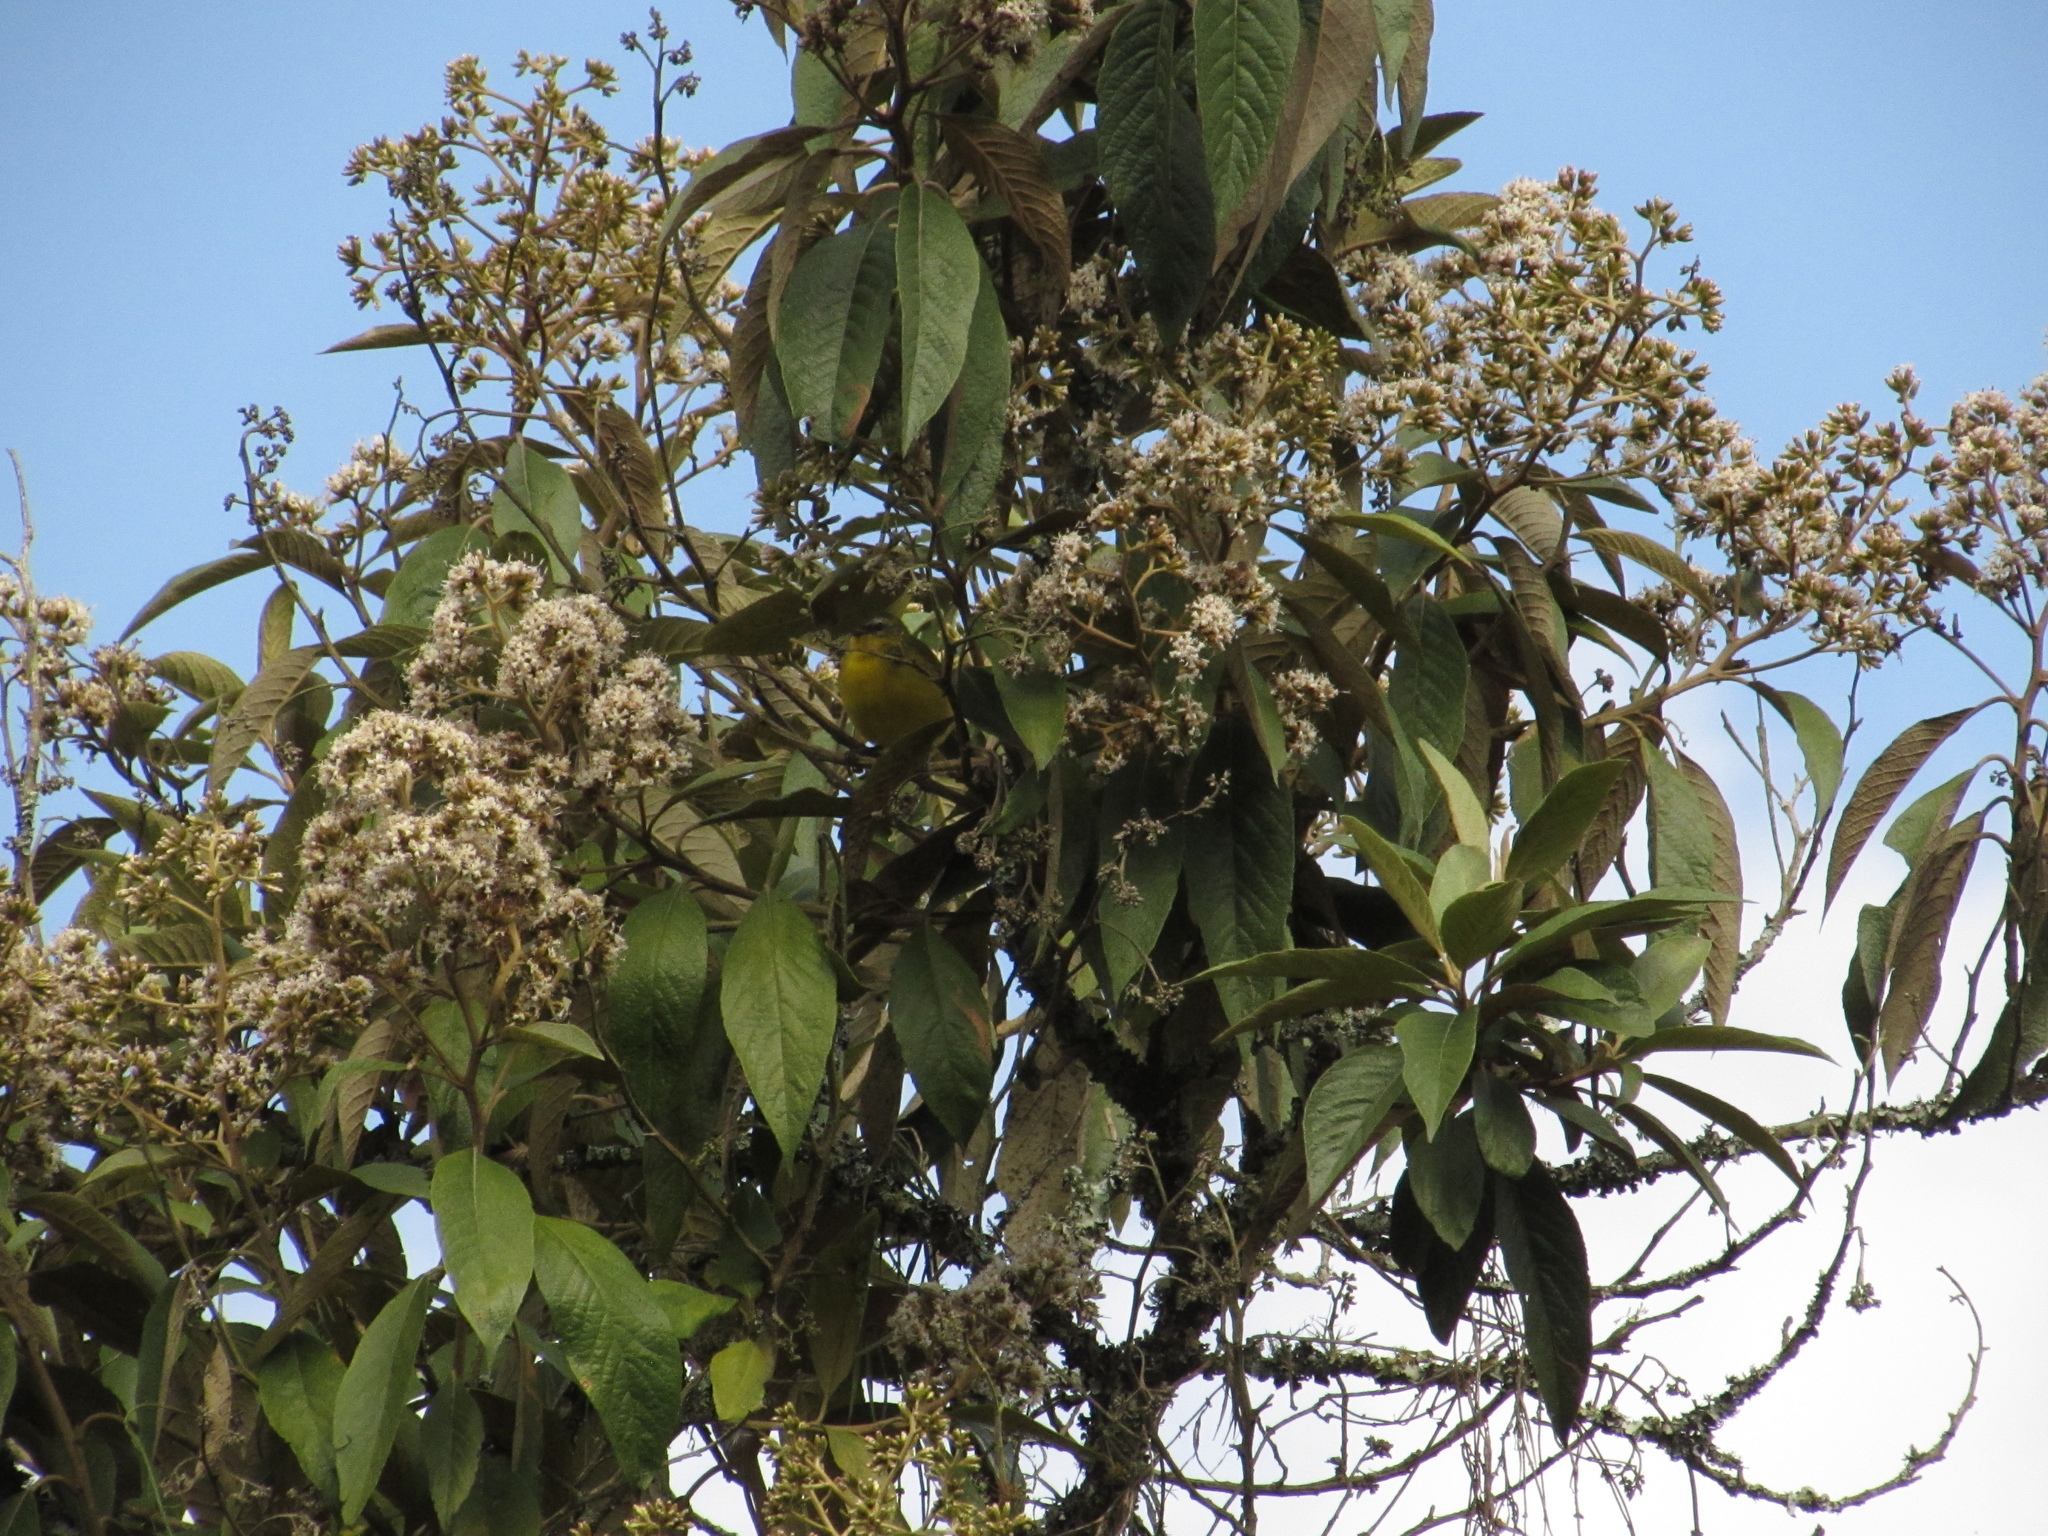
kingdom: Animalia
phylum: Chordata
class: Aves
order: Passeriformes
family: Thraupidae
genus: Thlypopsis
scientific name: Thlypopsis superciliaris
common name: Superciliaried hemispingus
